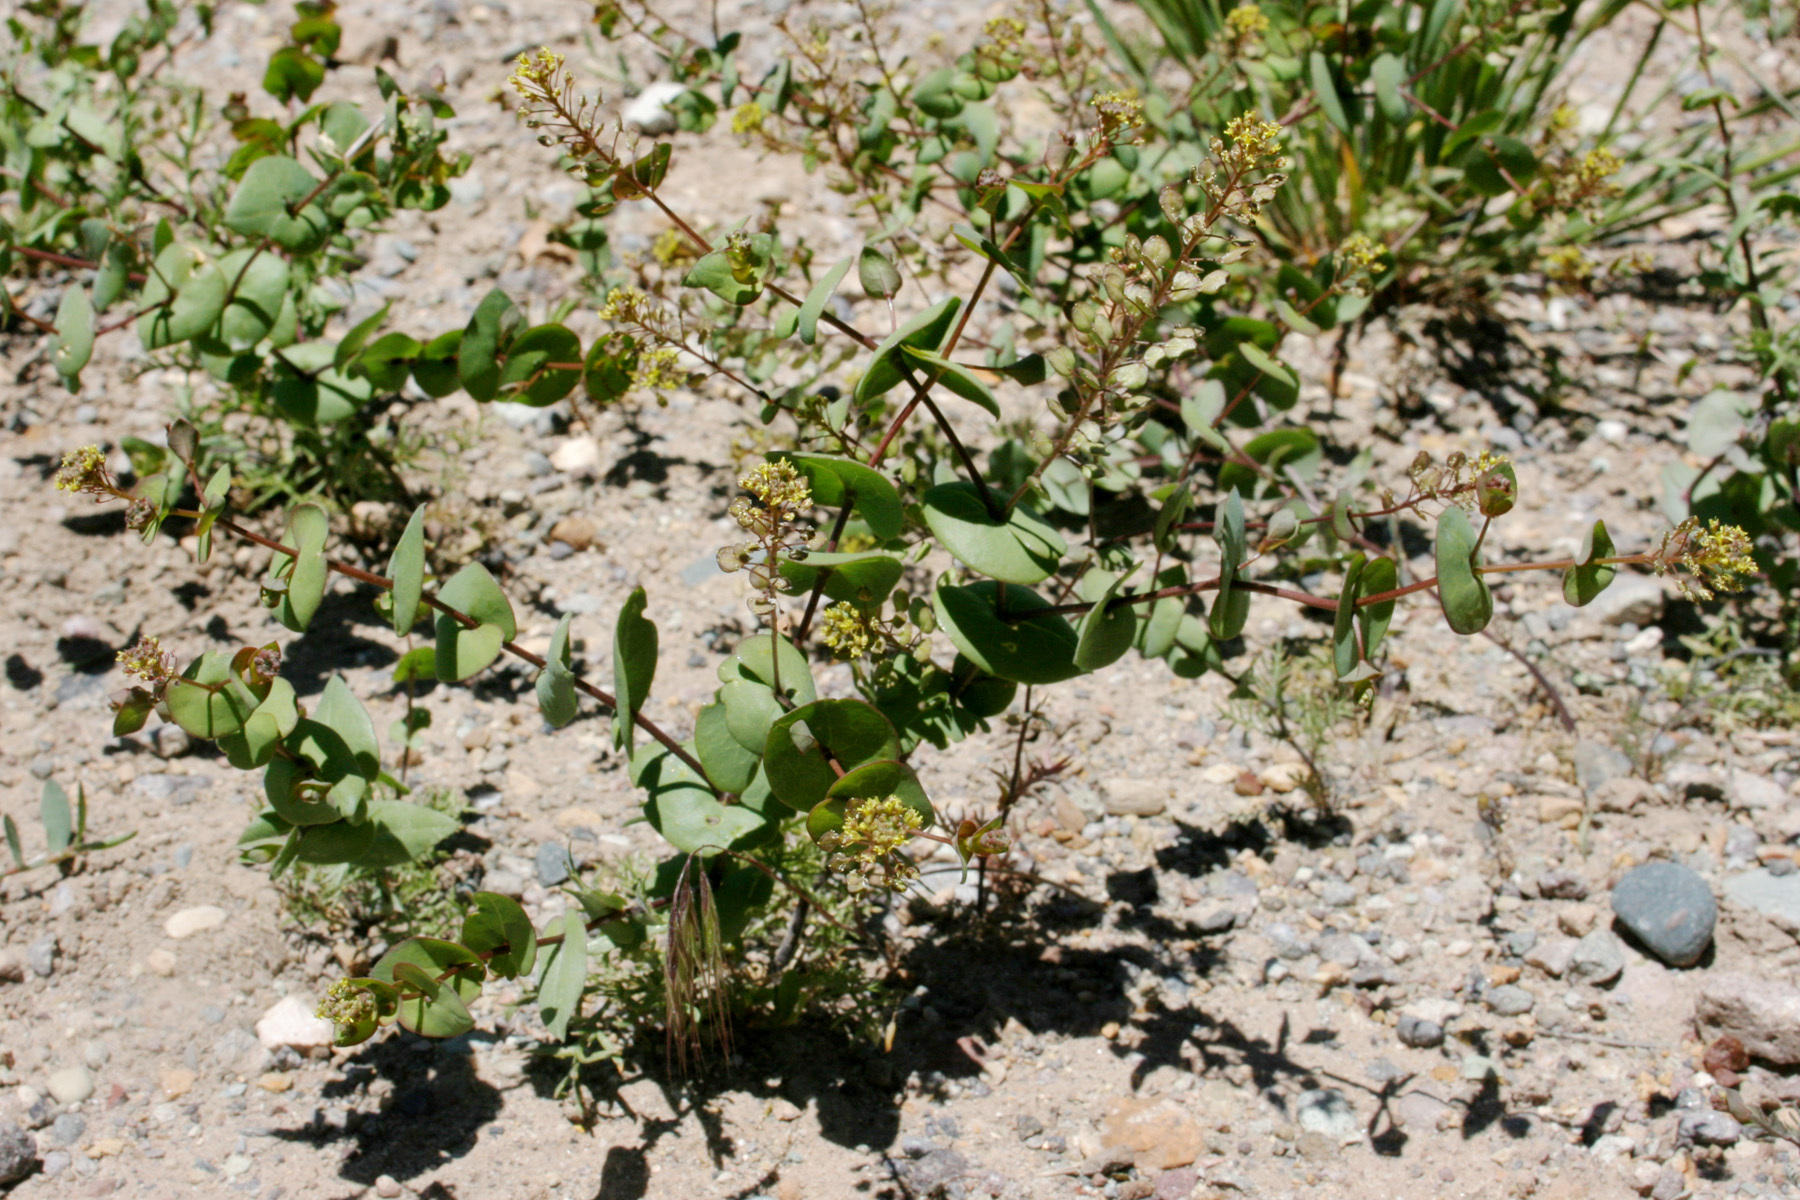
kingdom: Plantae
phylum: Tracheophyta
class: Magnoliopsida
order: Brassicales
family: Brassicaceae
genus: Lepidium
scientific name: Lepidium perfoliatum
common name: Perfoliate pepperwort
